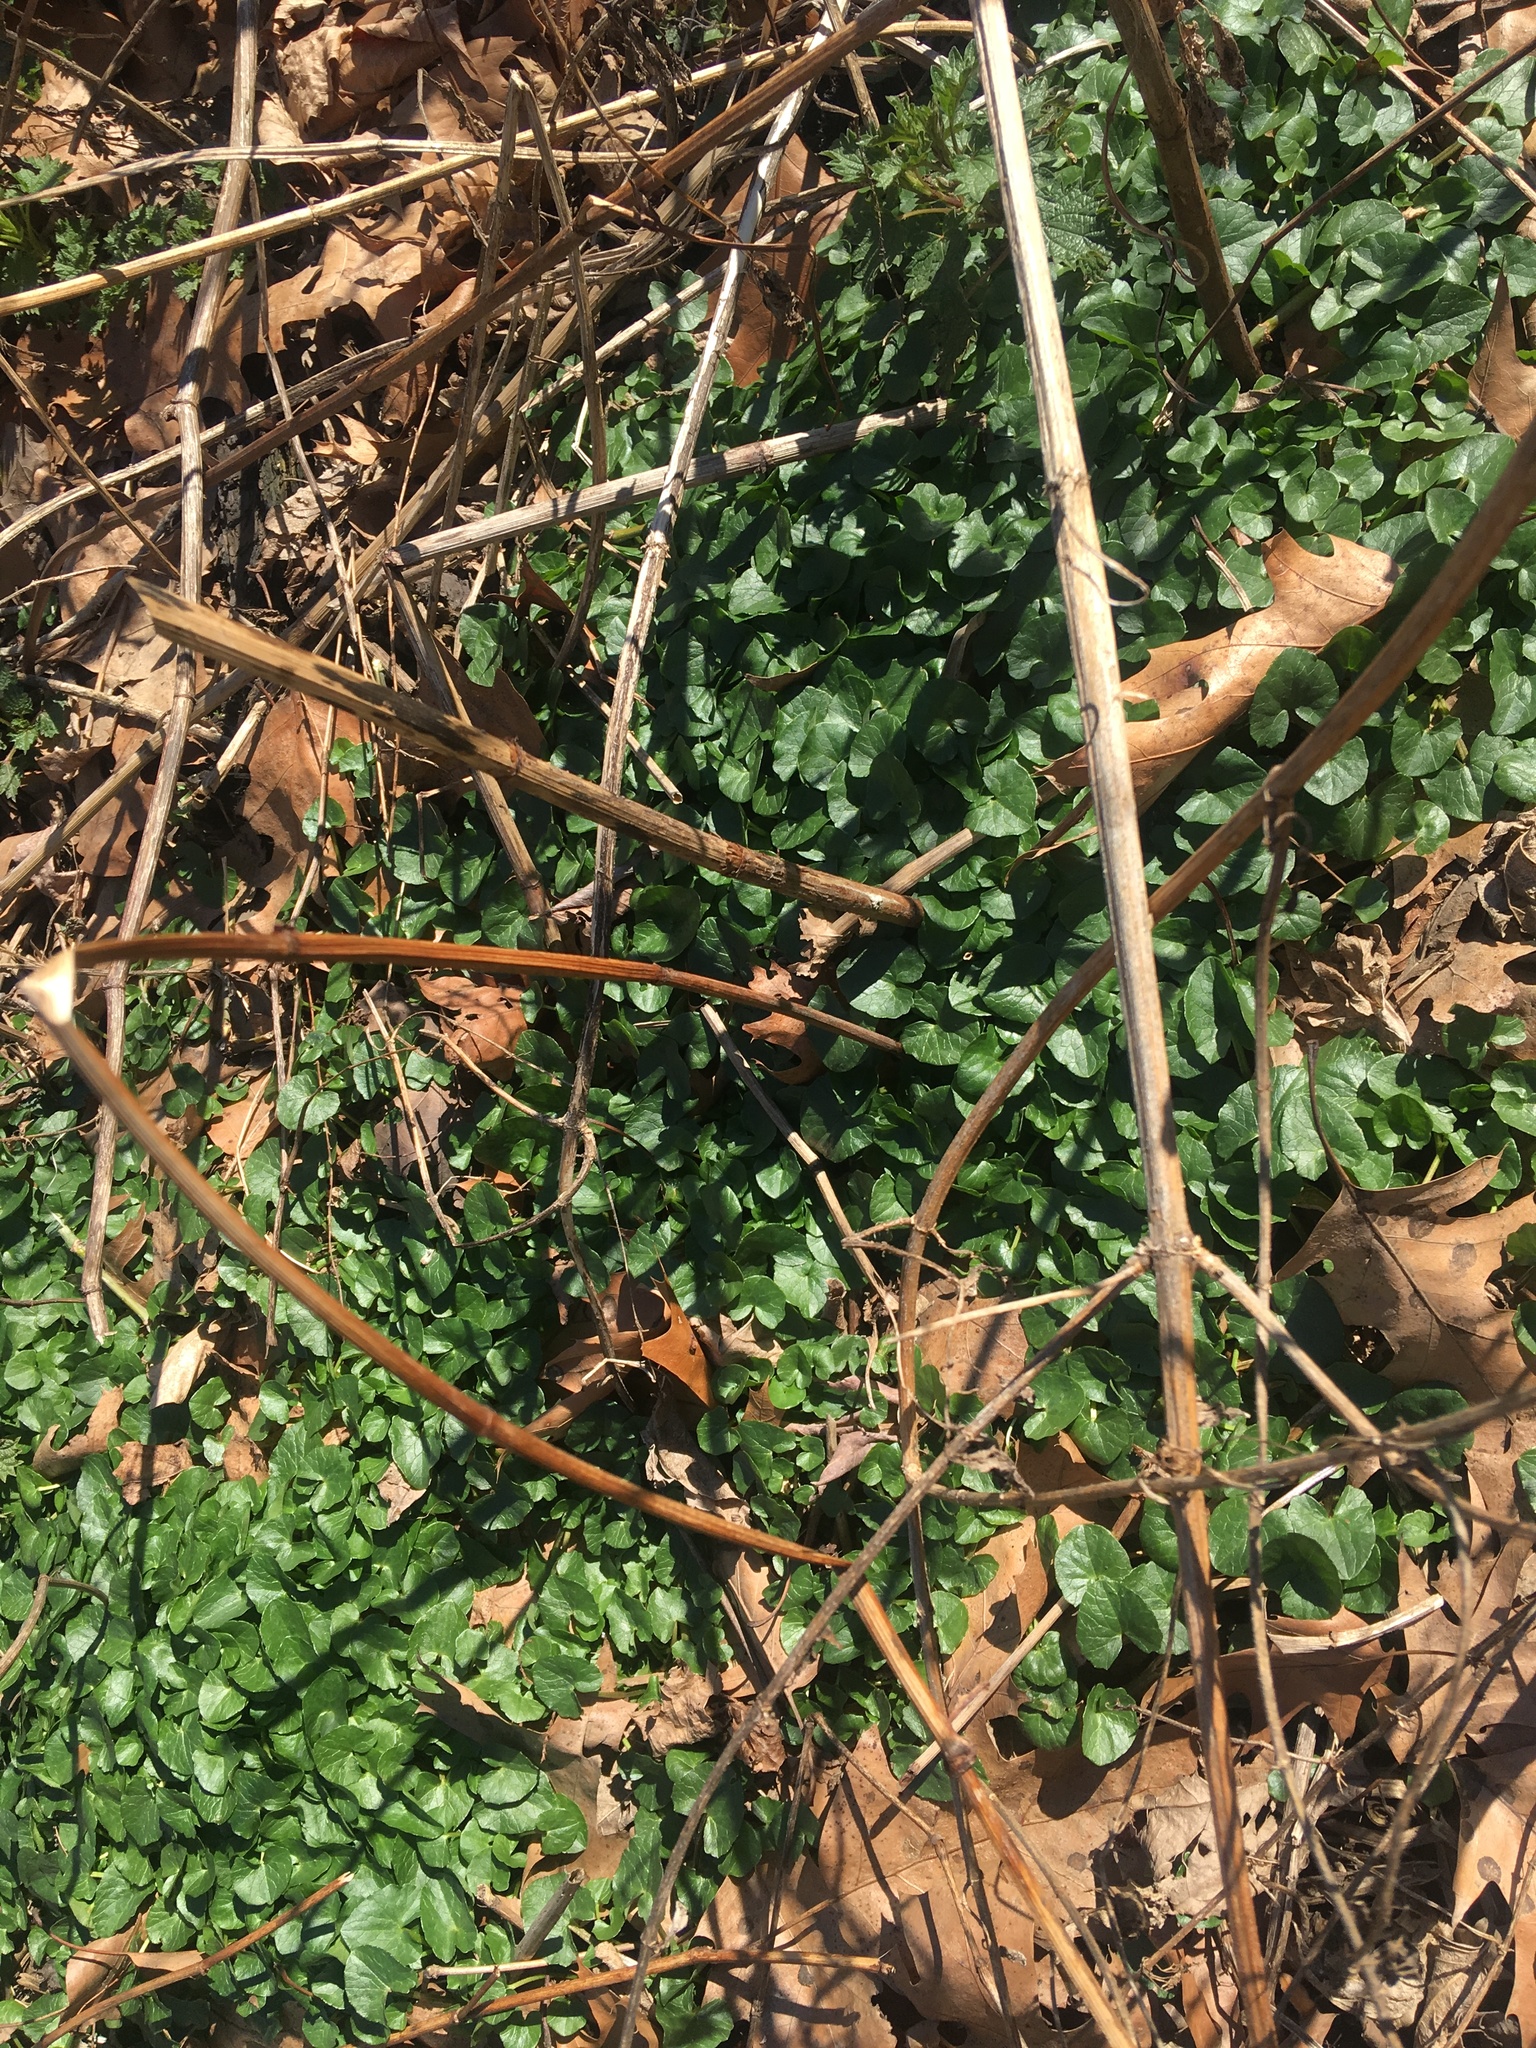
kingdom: Plantae
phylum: Tracheophyta
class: Magnoliopsida
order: Ranunculales
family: Ranunculaceae
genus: Ficaria
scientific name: Ficaria verna
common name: Lesser celandine
